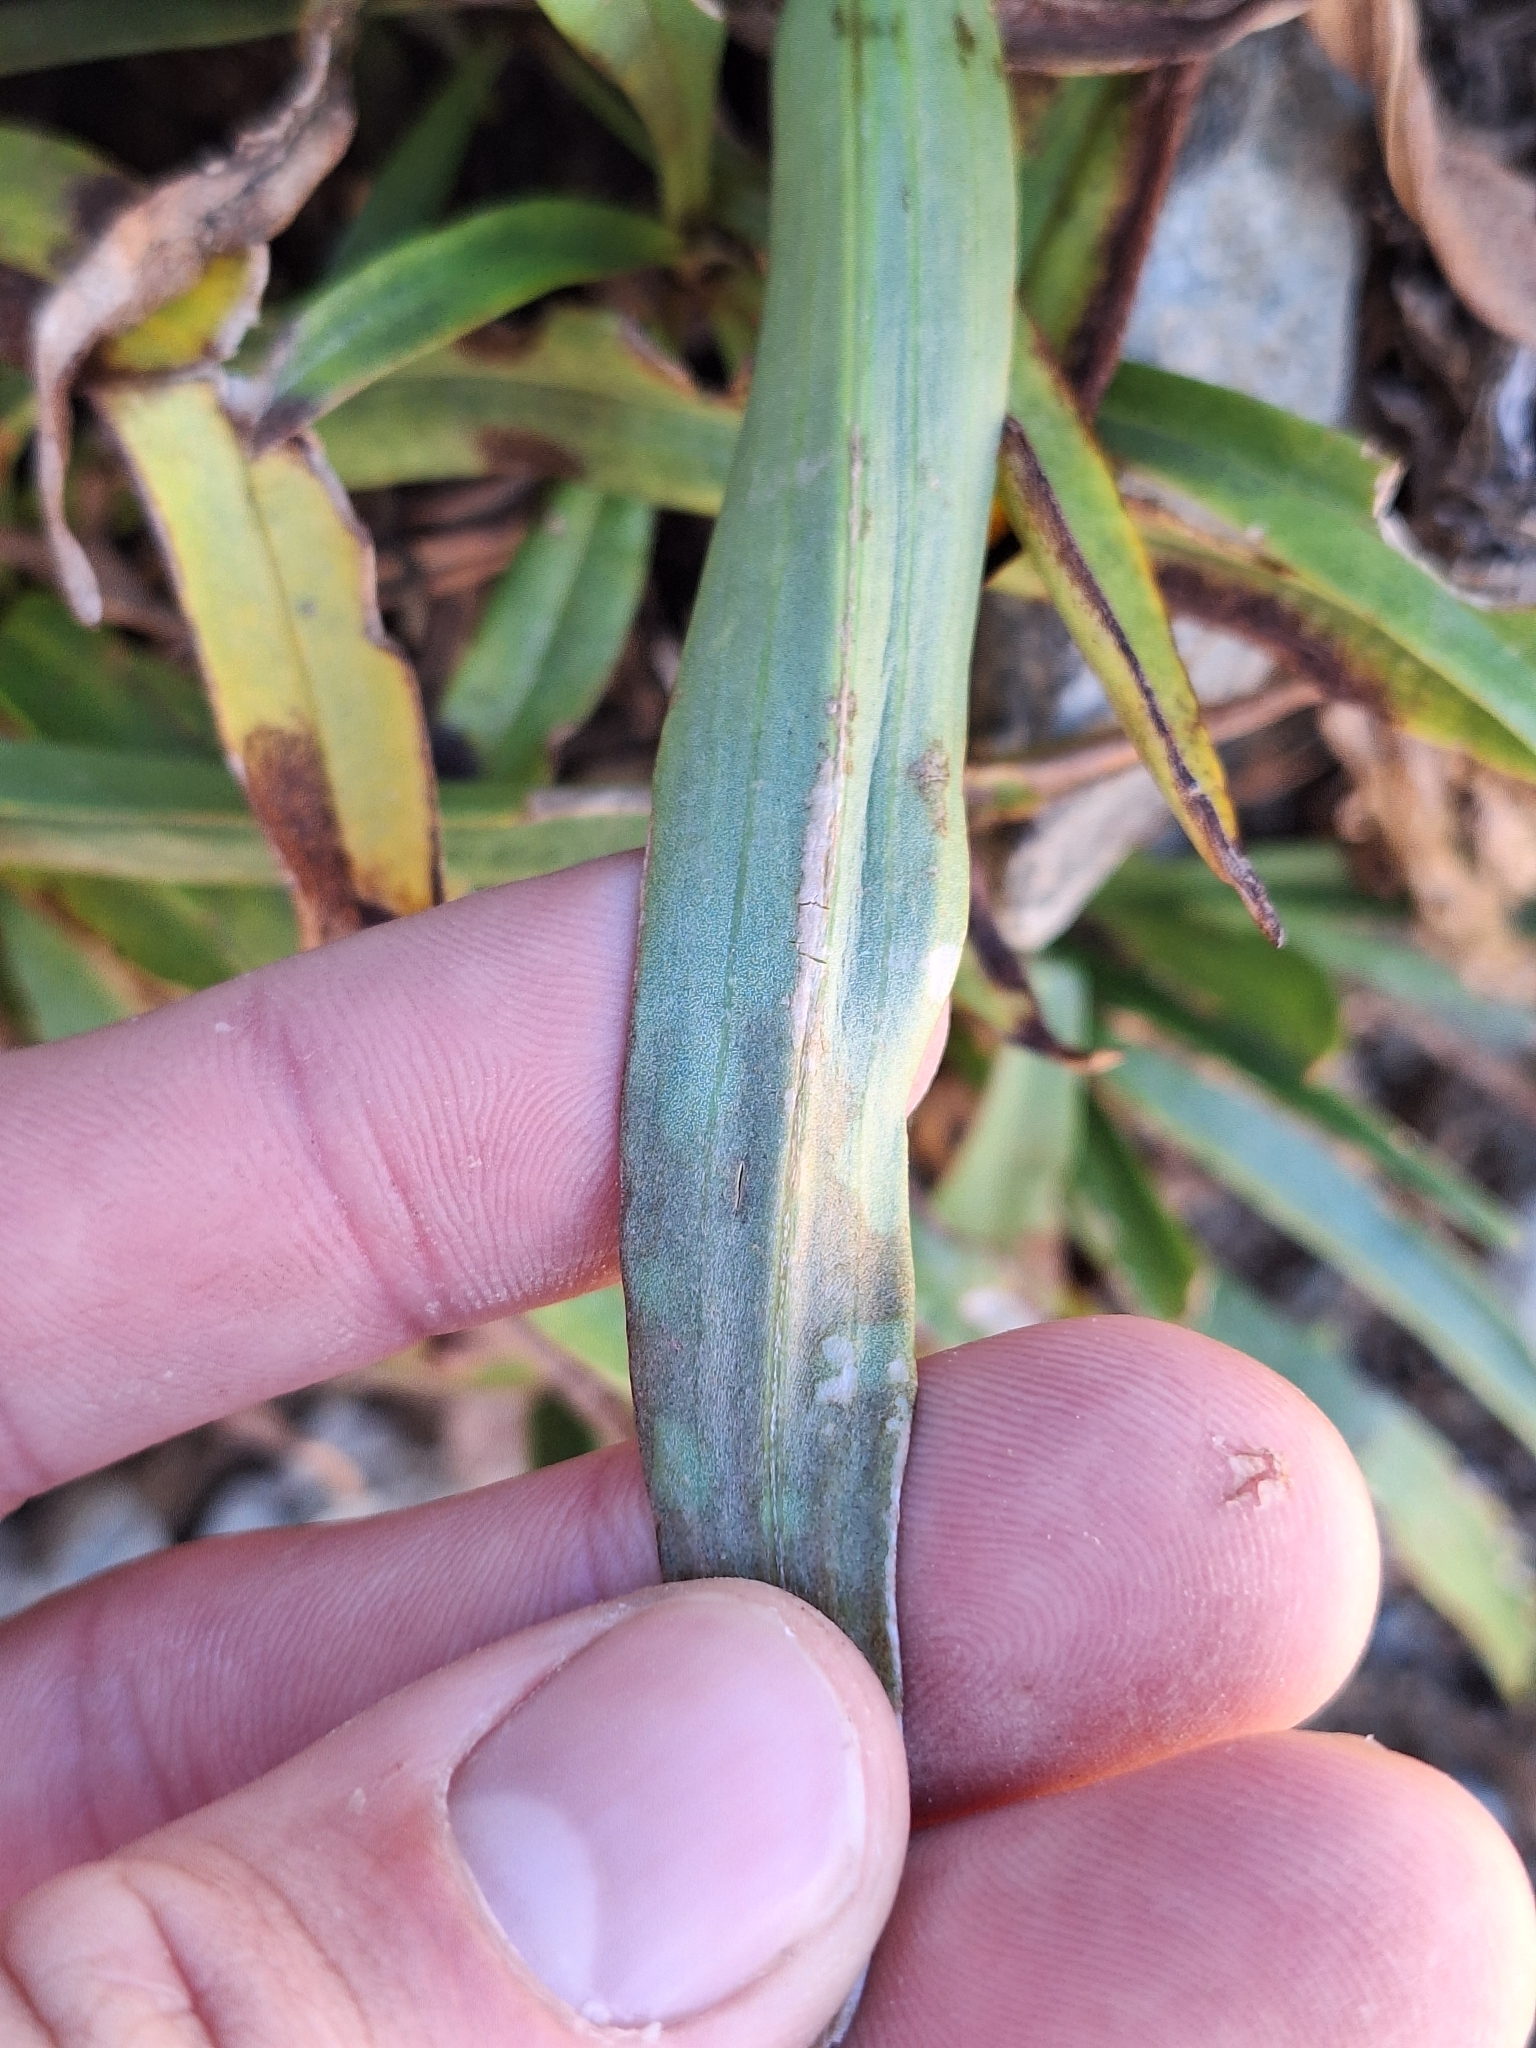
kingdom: Plantae
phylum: Tracheophyta
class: Magnoliopsida
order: Asterales
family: Asteraceae
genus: Dolichoglottis
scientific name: Dolichoglottis scorzoneroides
